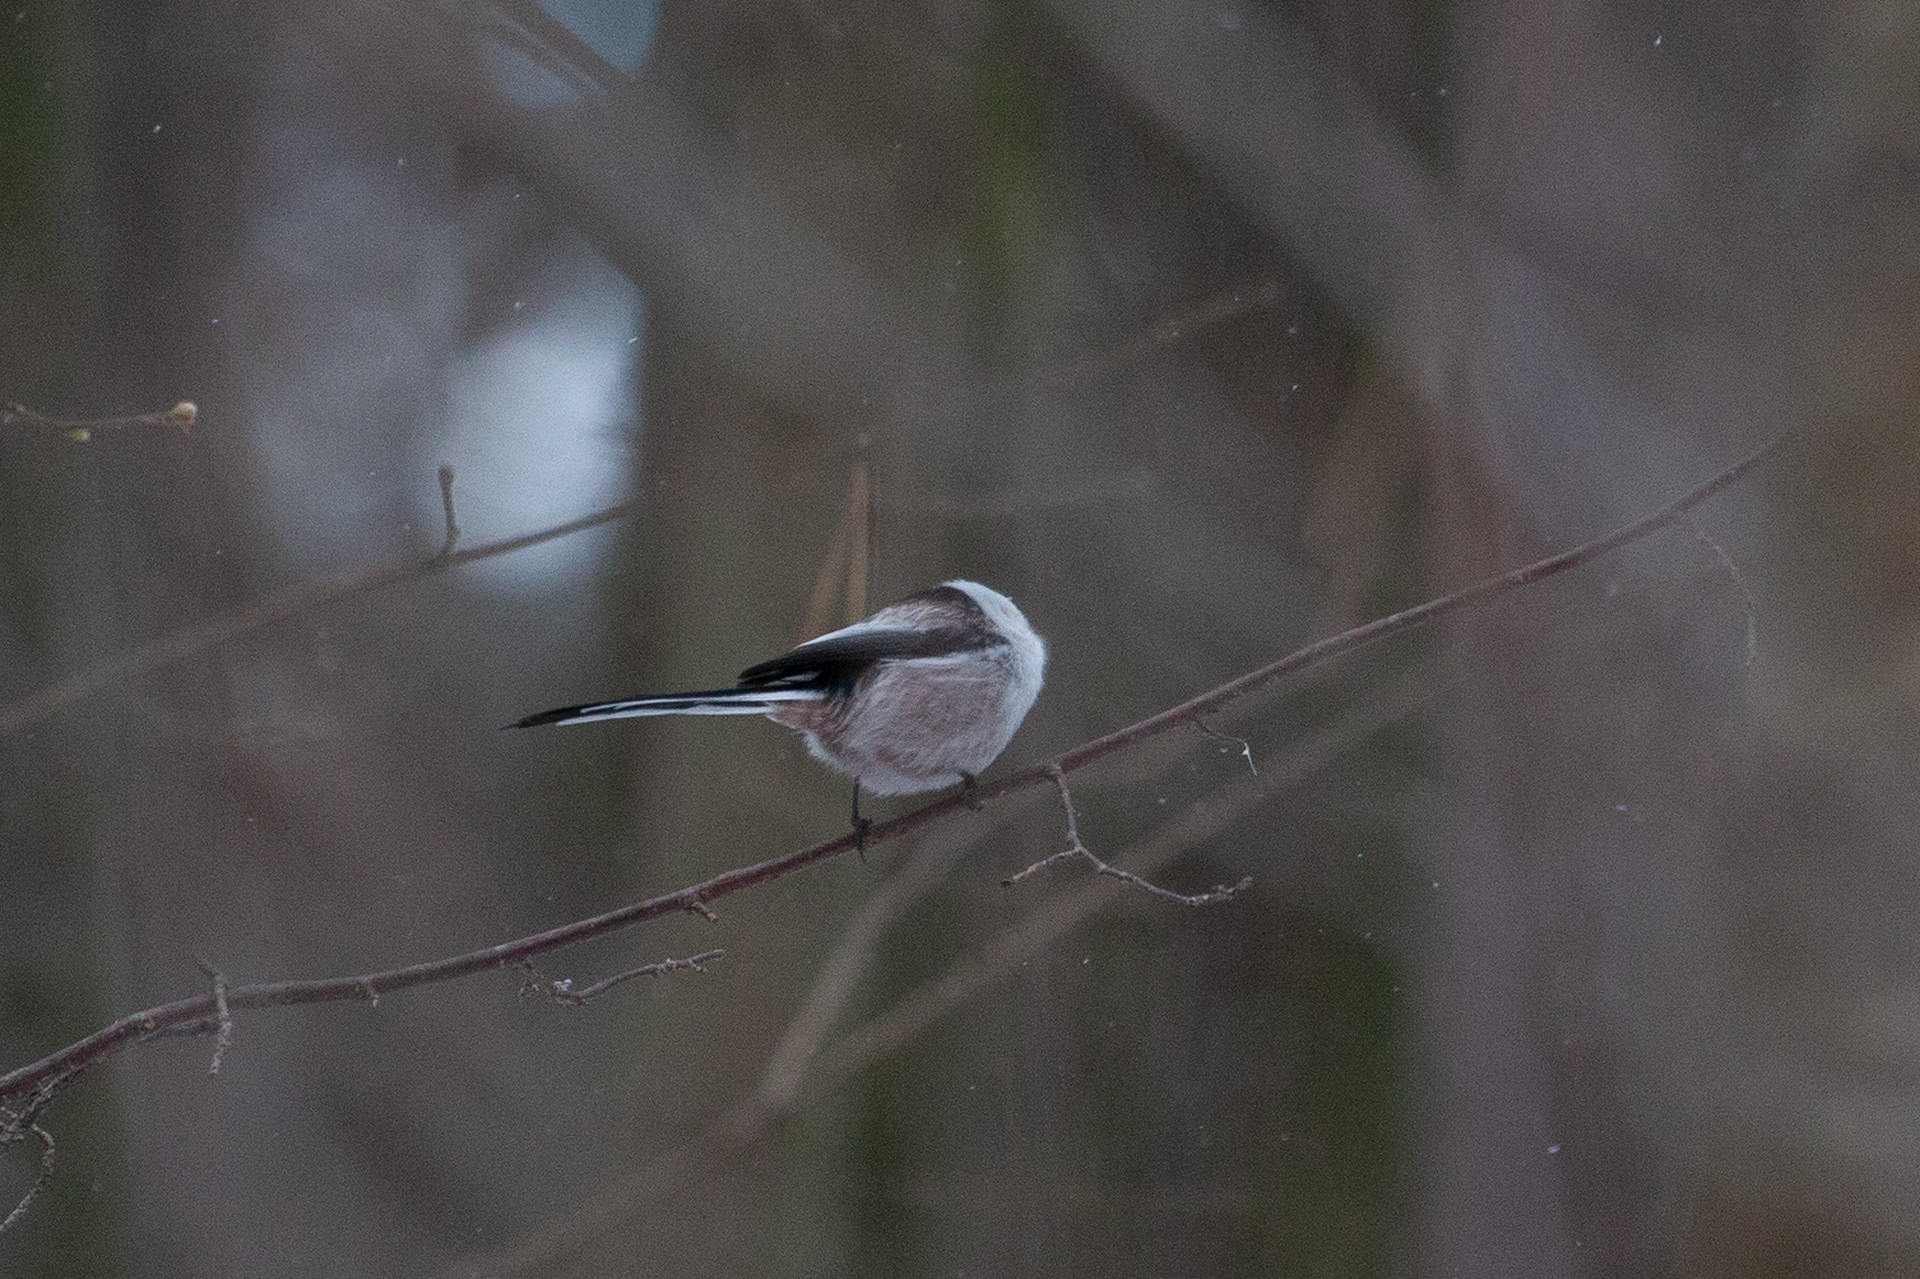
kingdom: Animalia
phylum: Chordata
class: Aves
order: Passeriformes
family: Aegithalidae
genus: Aegithalos
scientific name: Aegithalos caudatus
